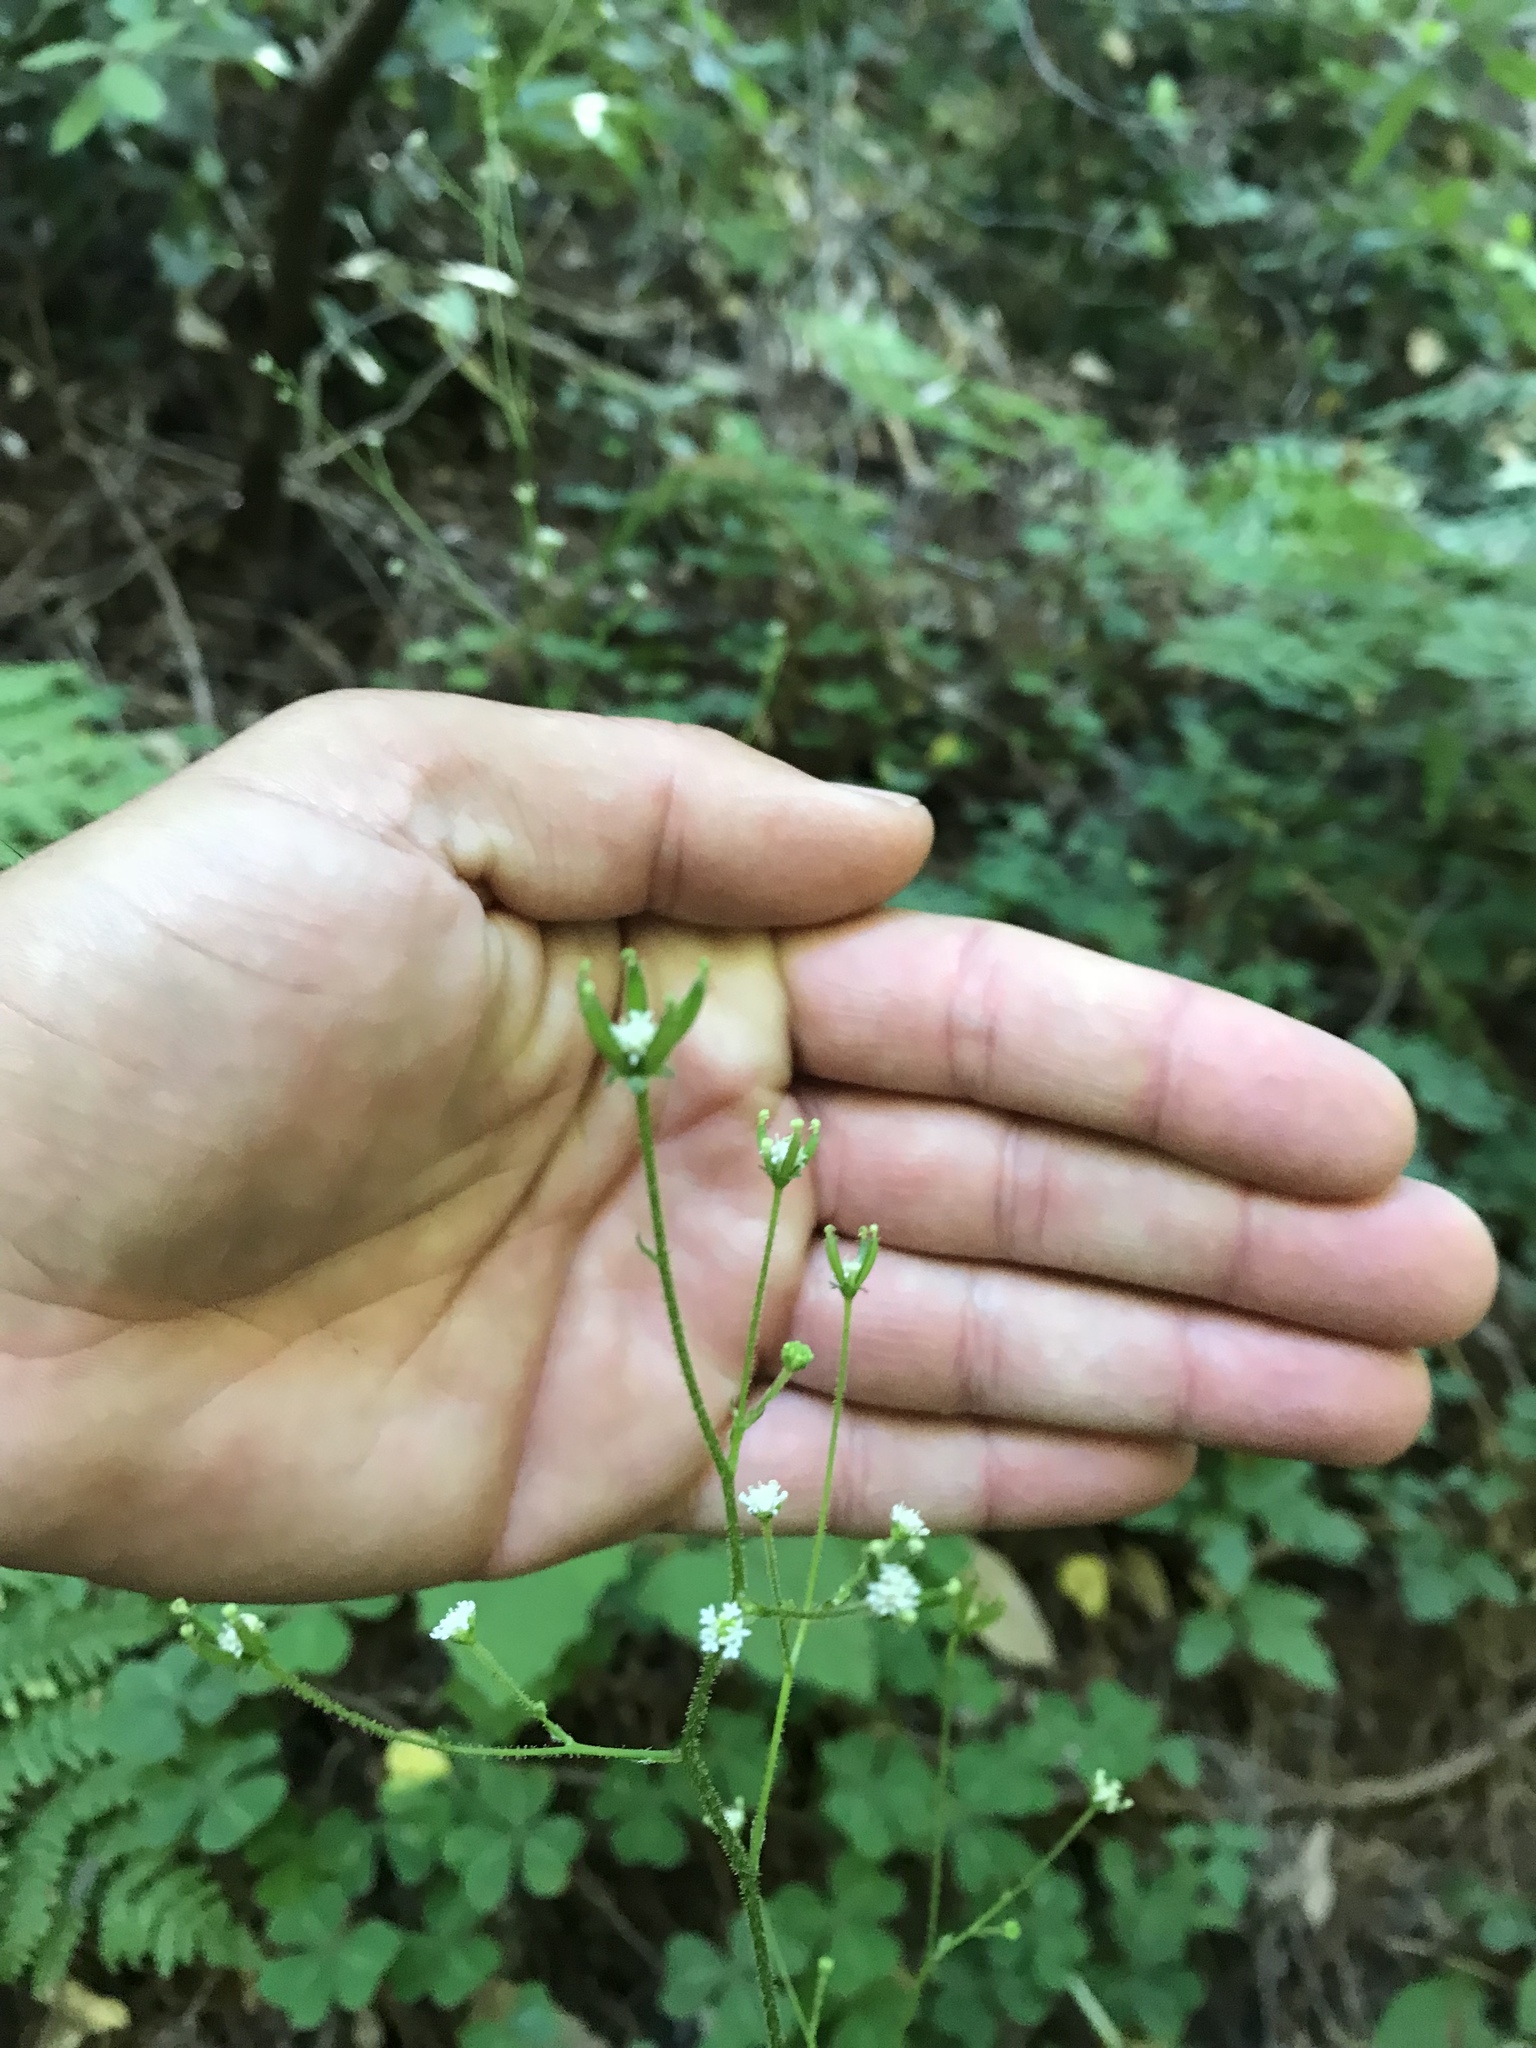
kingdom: Plantae
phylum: Tracheophyta
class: Magnoliopsida
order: Asterales
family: Asteraceae
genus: Adenocaulon
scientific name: Adenocaulon bicolor
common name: Trailplant
